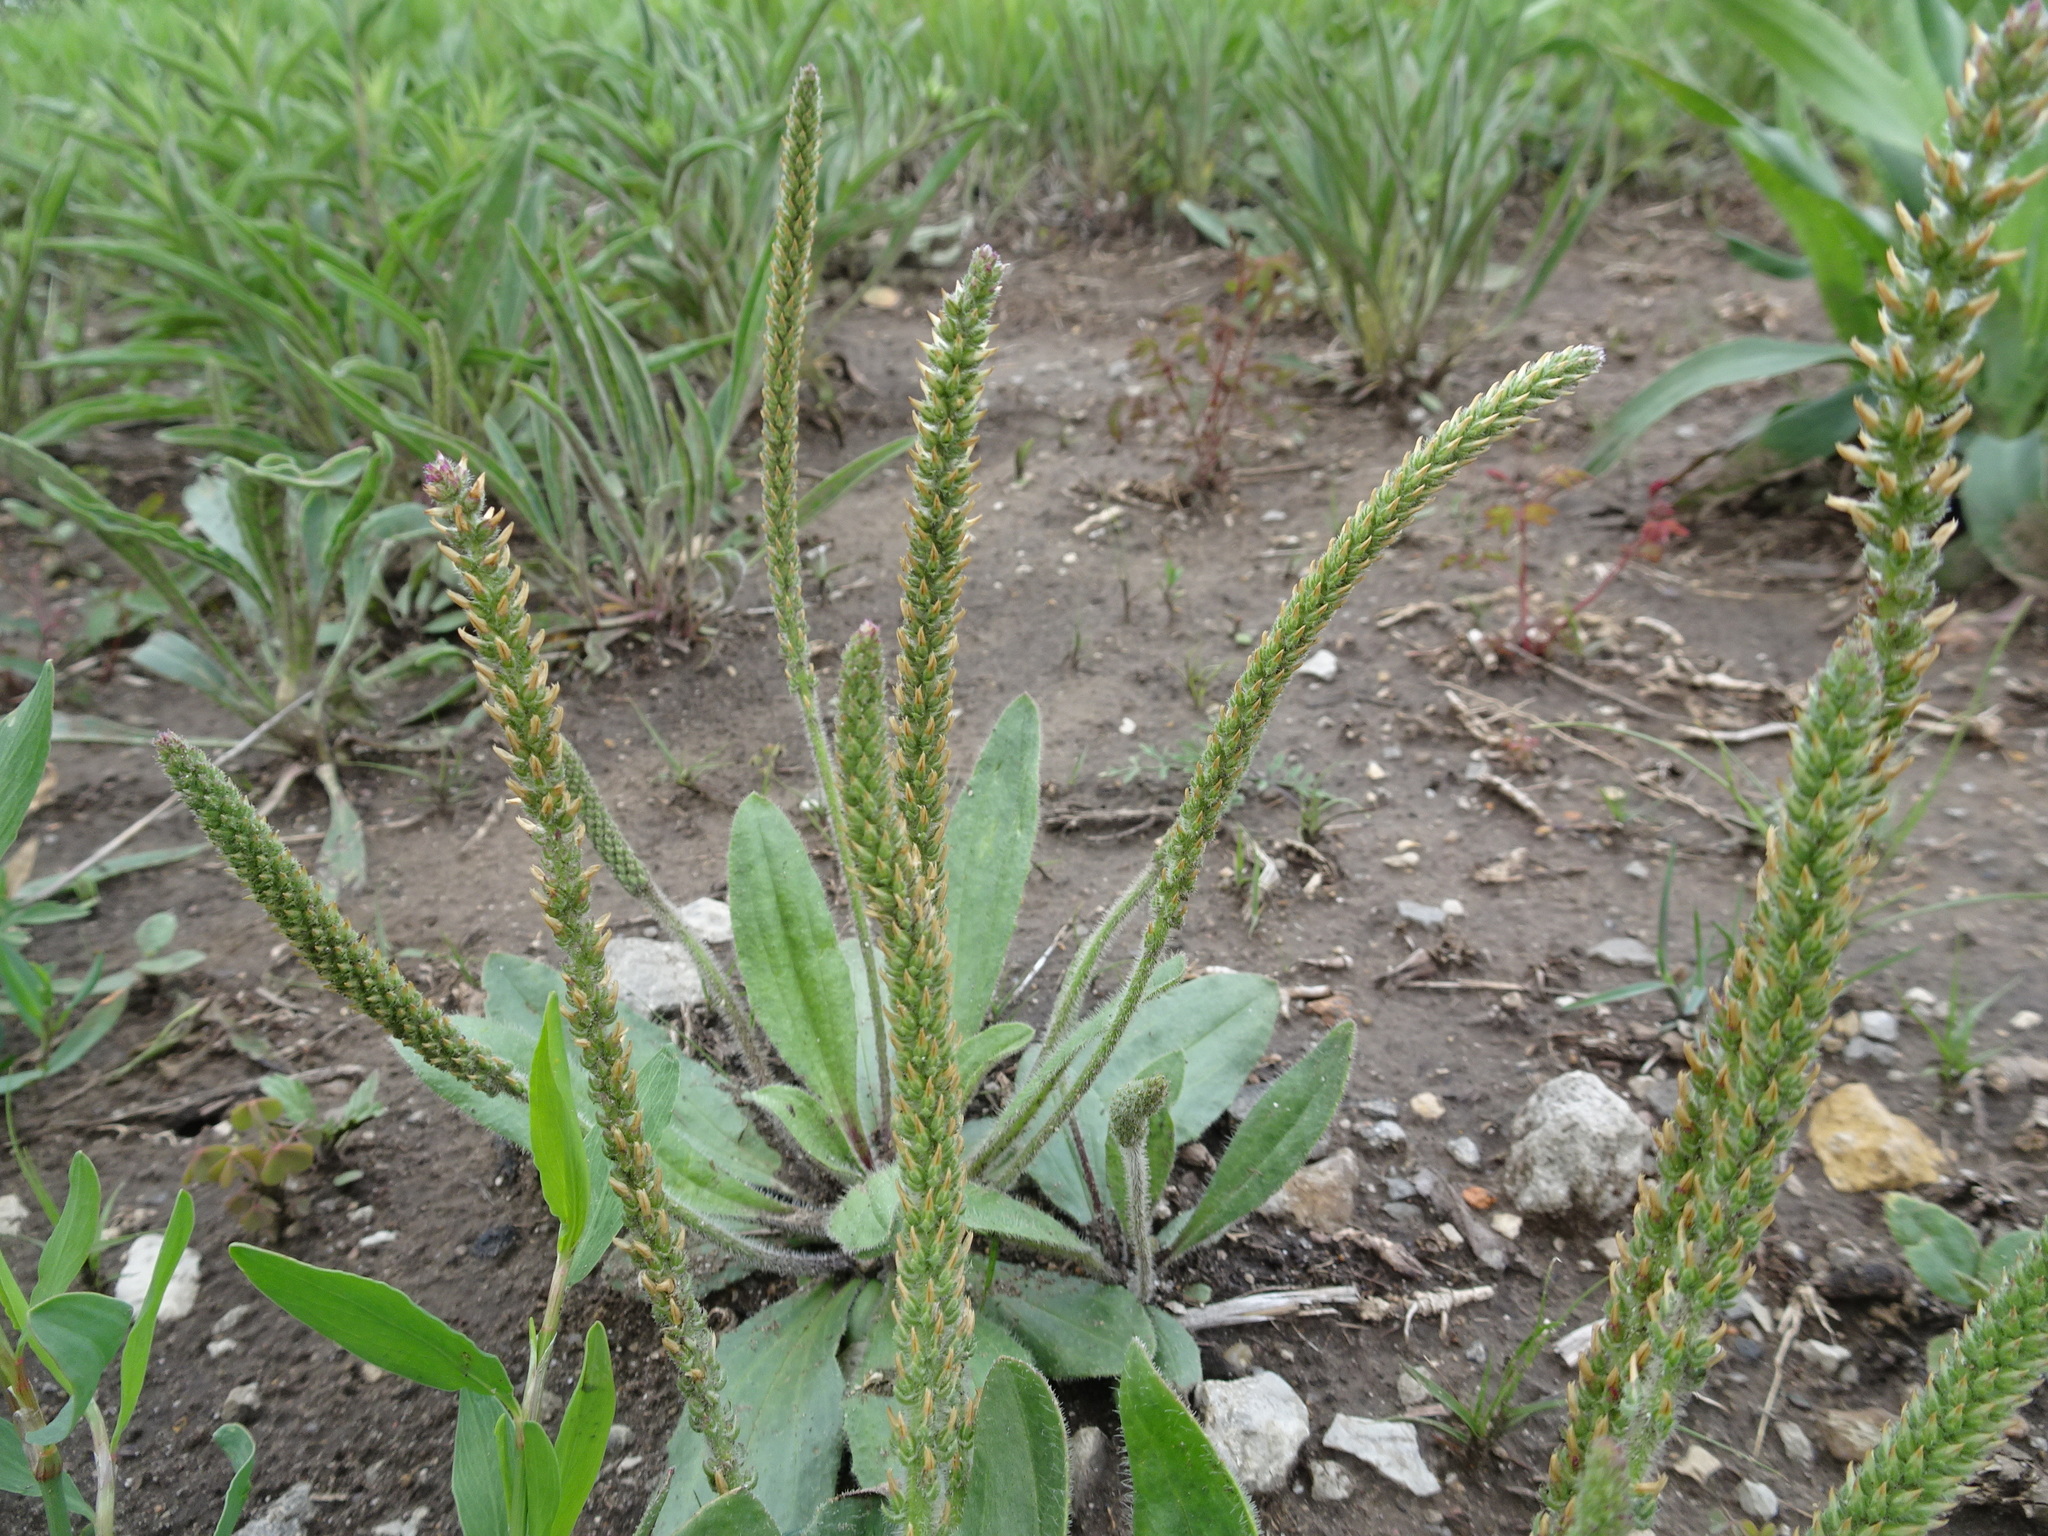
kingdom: Plantae
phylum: Tracheophyta
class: Magnoliopsida
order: Lamiales
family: Plantaginaceae
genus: Plantago
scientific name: Plantago rhodosperma
